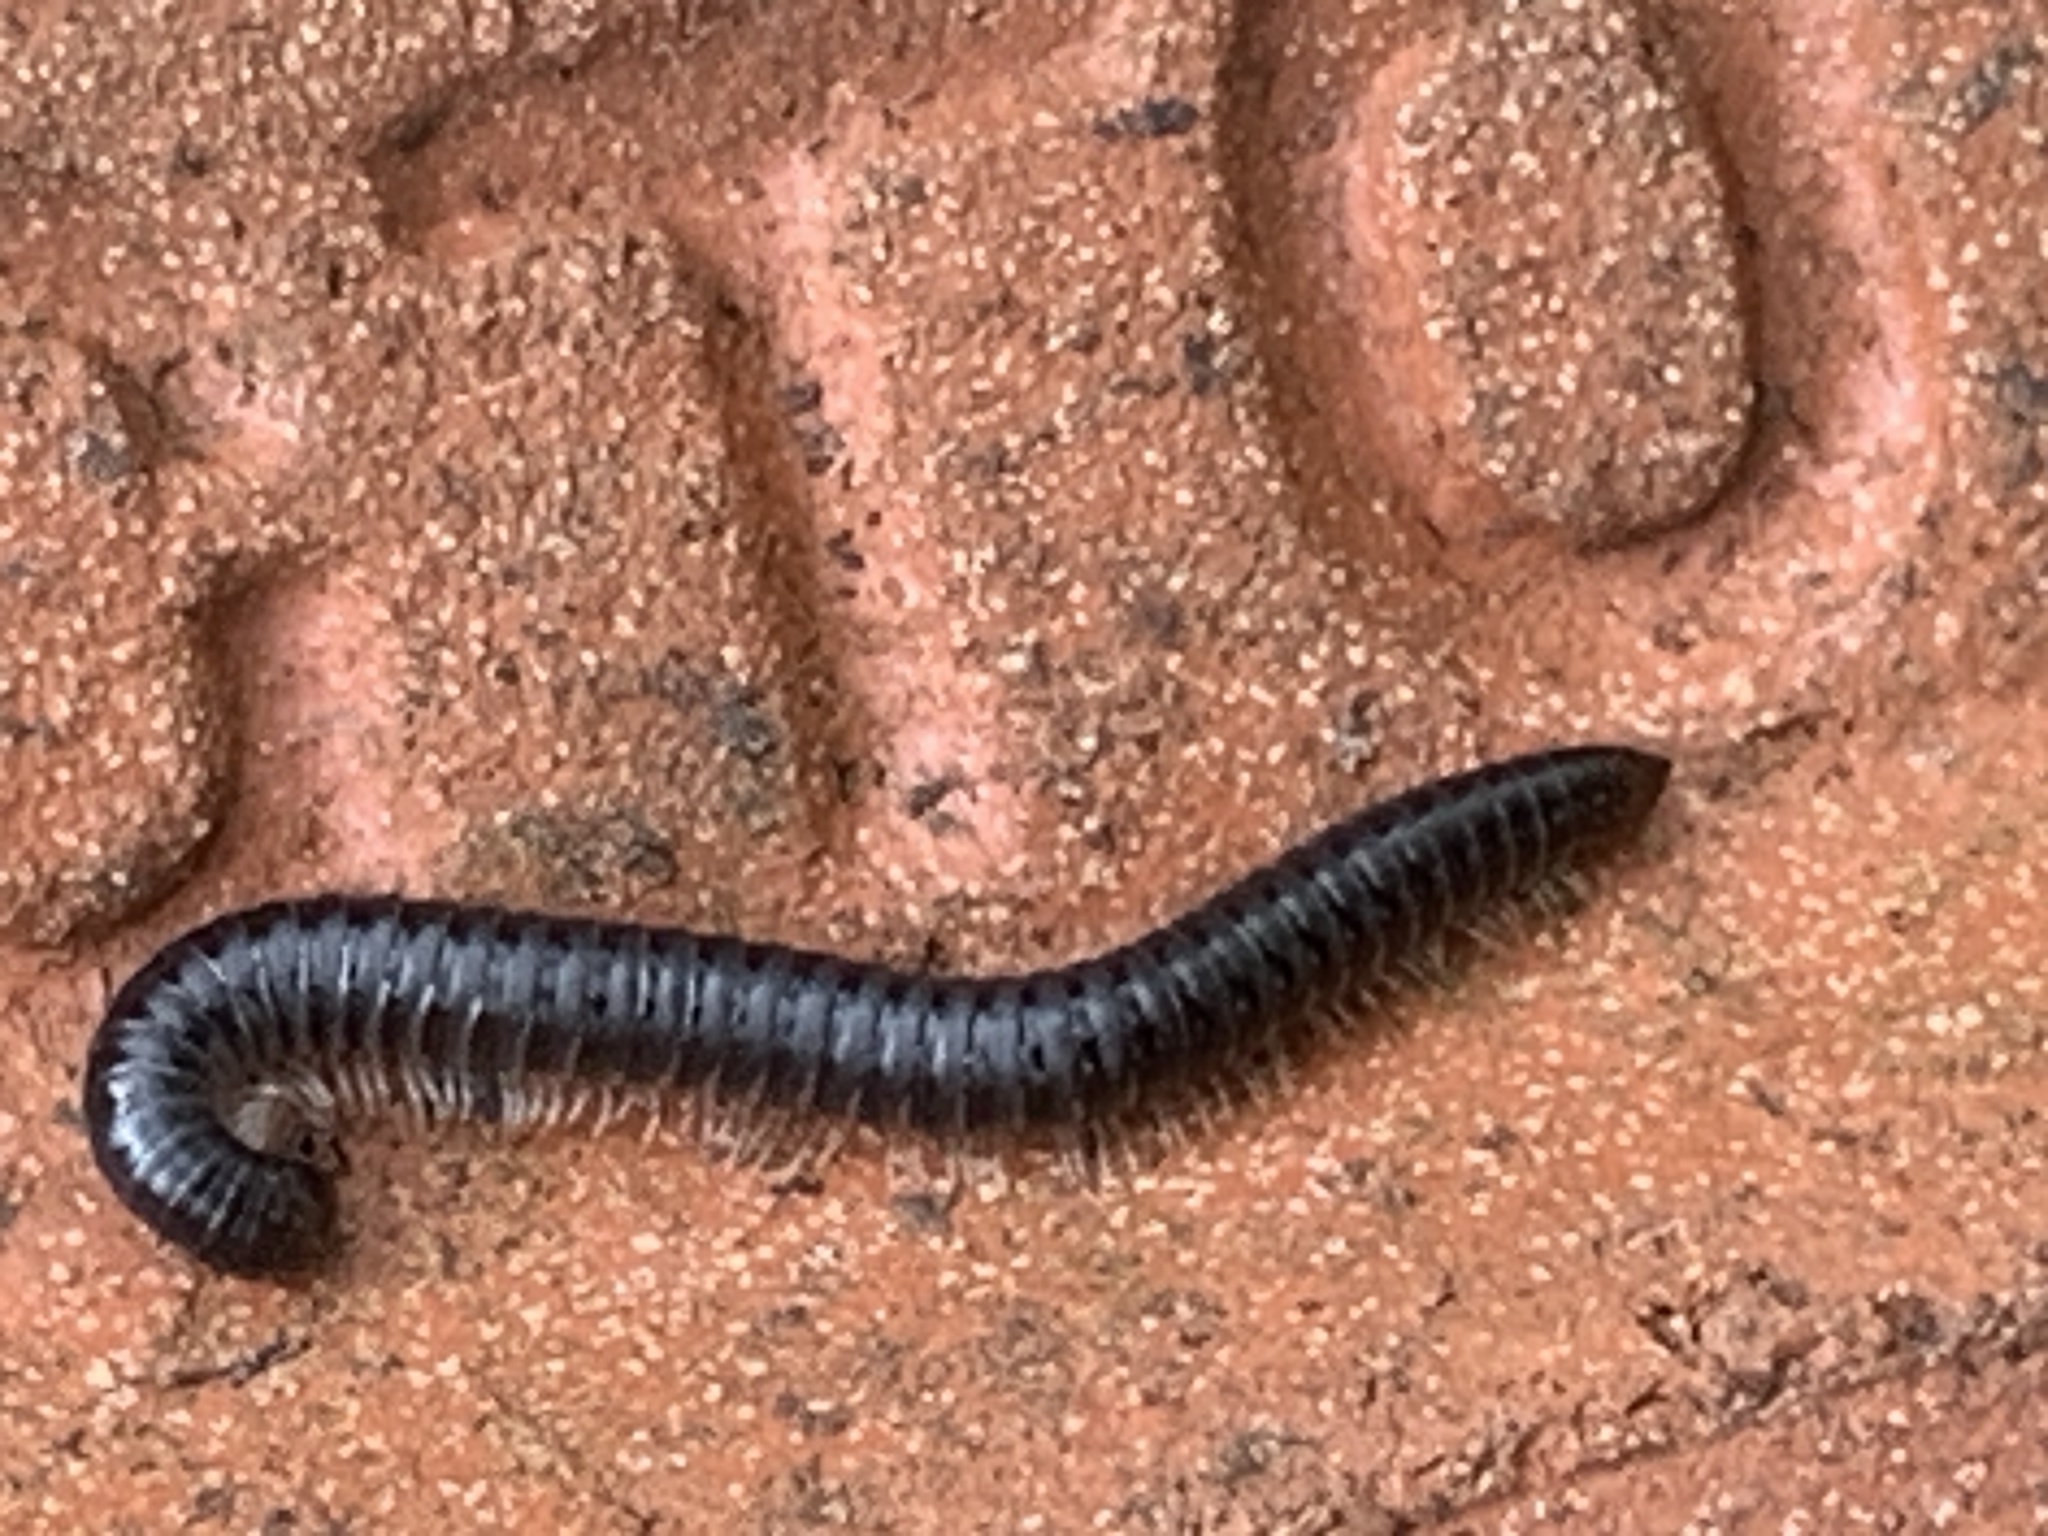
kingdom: Animalia
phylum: Arthropoda
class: Diplopoda
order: Julida
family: Julidae
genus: Tachypodoiulus
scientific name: Tachypodoiulus niger
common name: White-legged snake millipede
